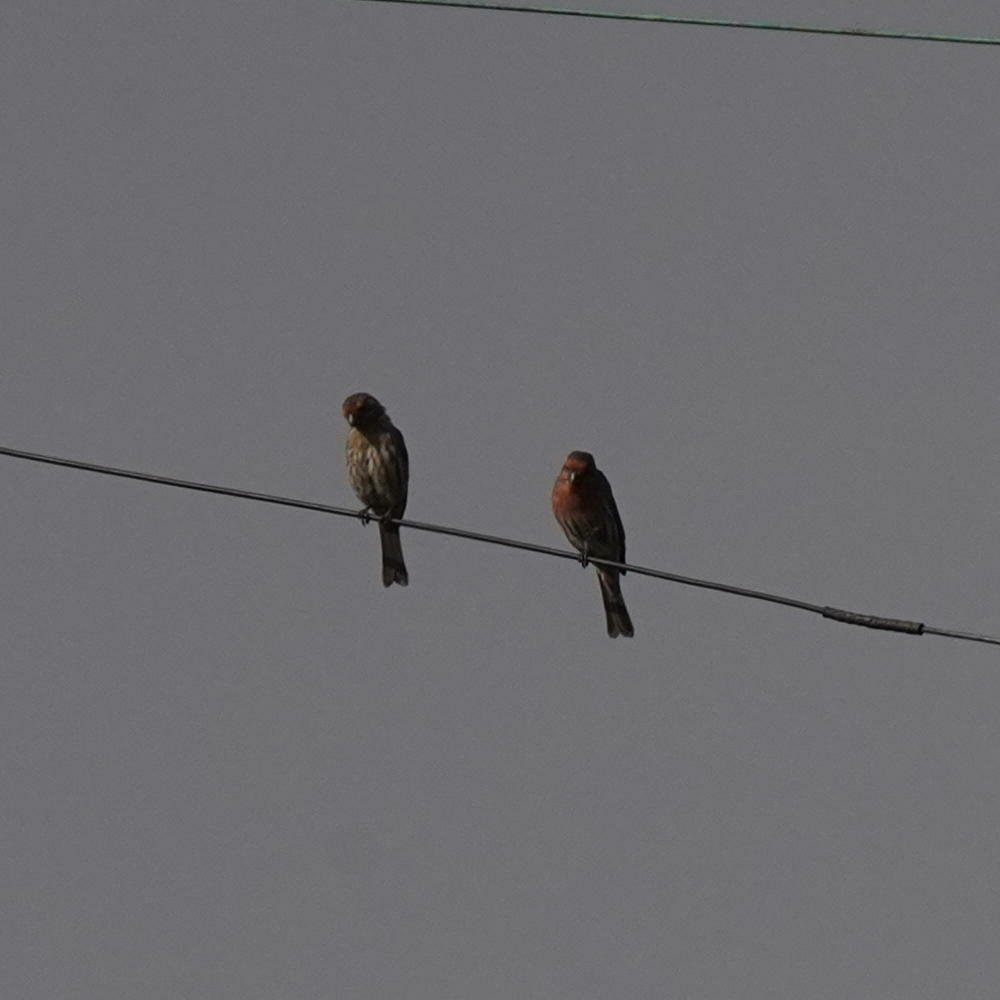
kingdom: Animalia
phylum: Chordata
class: Aves
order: Passeriformes
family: Fringillidae
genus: Haemorhous
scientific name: Haemorhous mexicanus
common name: House finch
